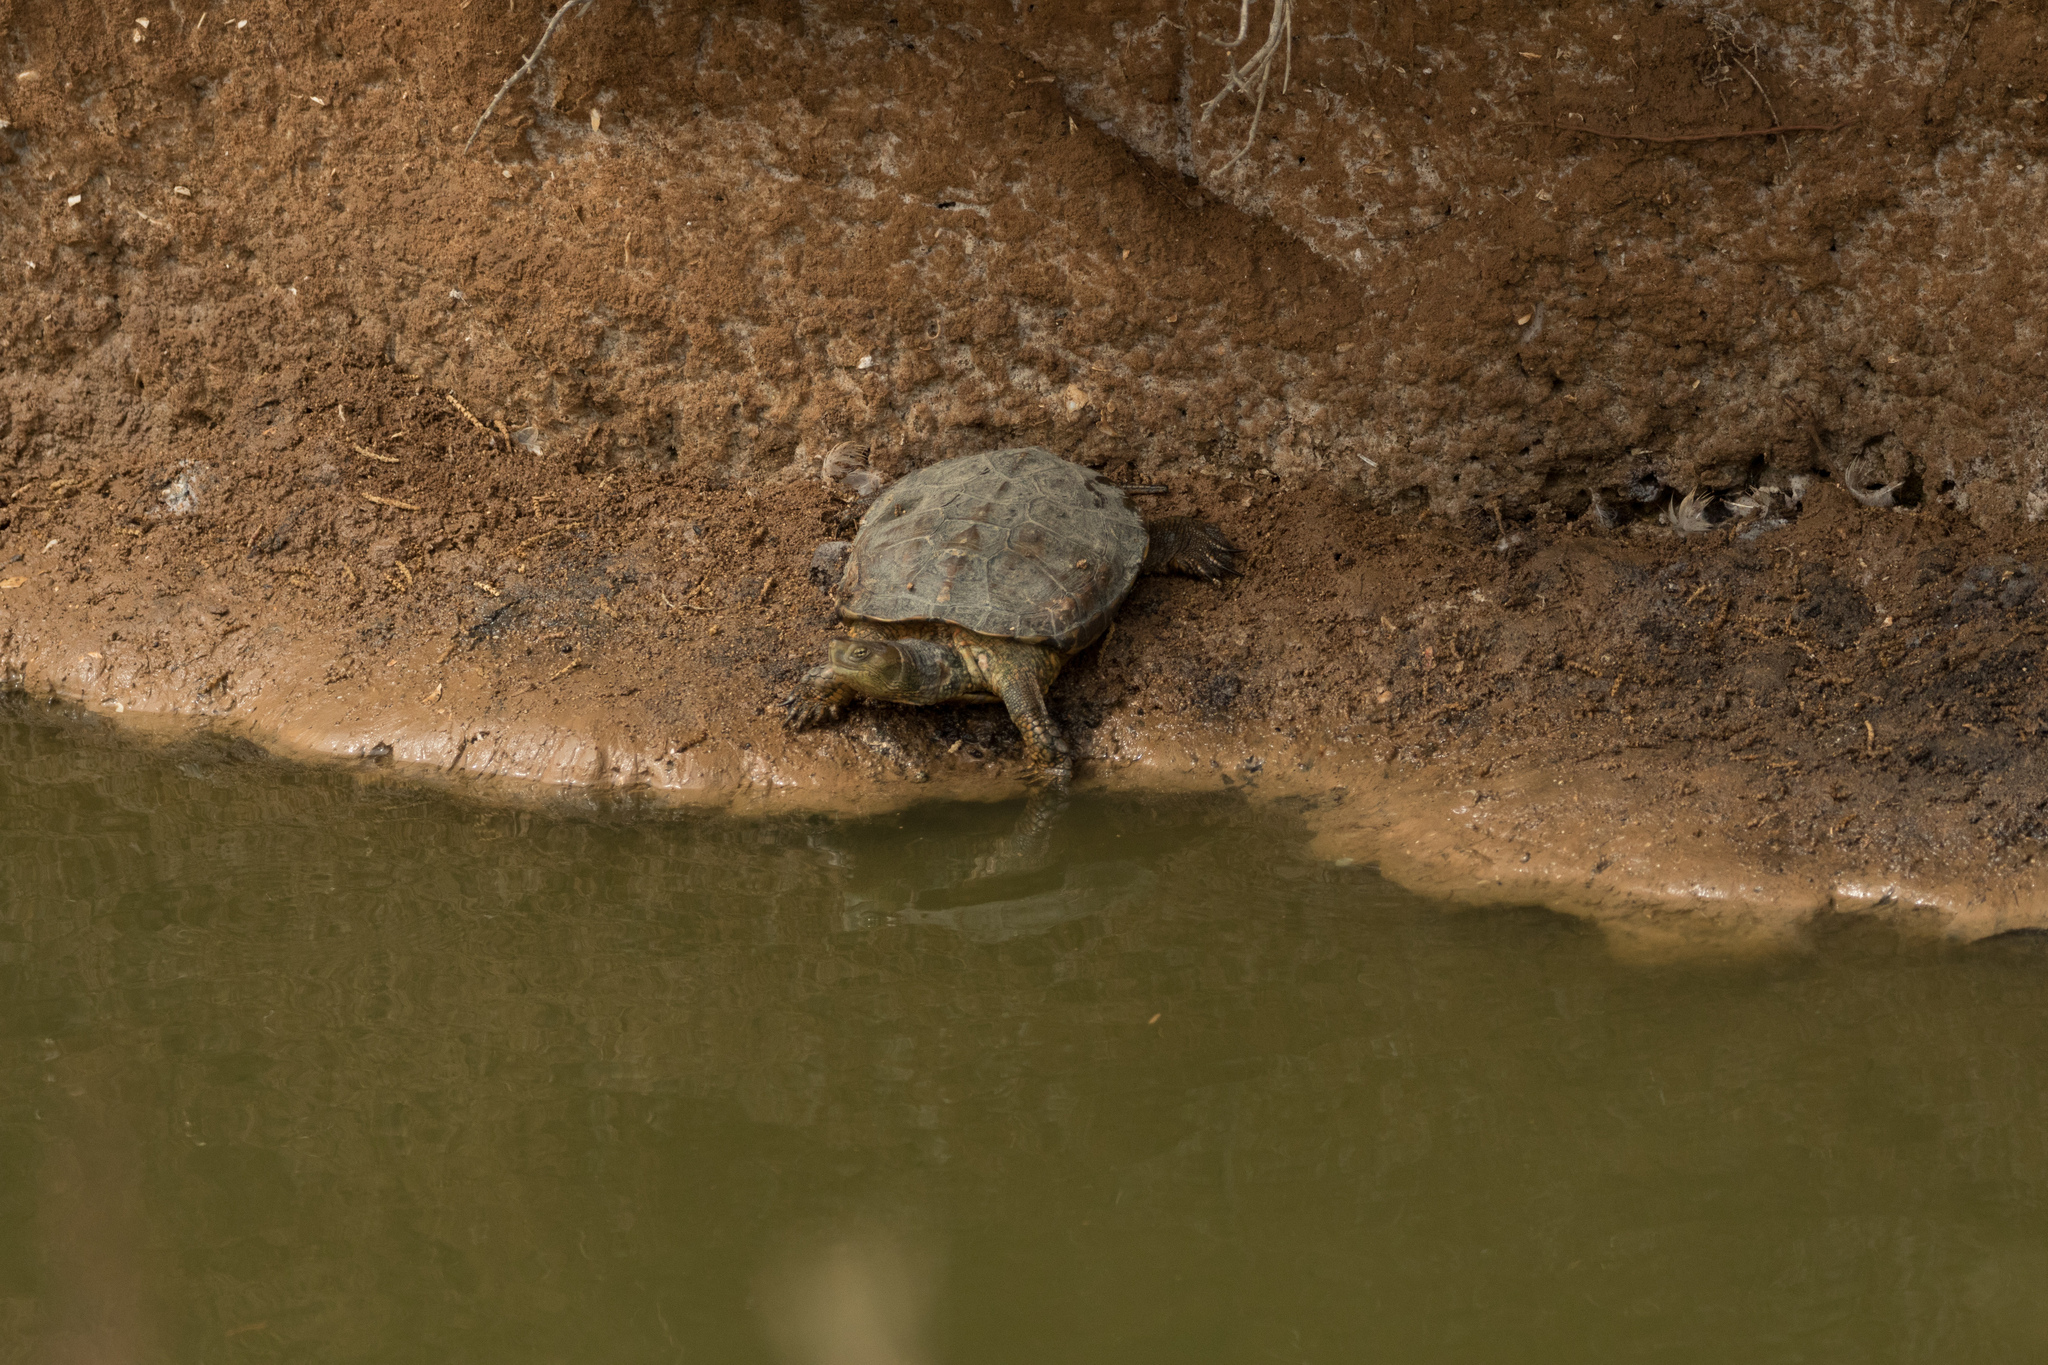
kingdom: Animalia
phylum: Chordata
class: Testudines
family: Geoemydidae
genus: Mauremys
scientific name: Mauremys leprosa
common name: Mediterranean pond turtle
